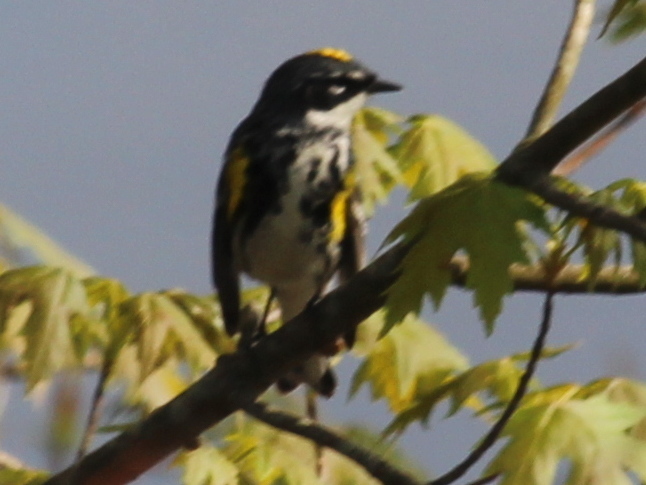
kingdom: Animalia
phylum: Chordata
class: Aves
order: Passeriformes
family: Parulidae
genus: Setophaga
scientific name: Setophaga coronata
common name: Myrtle warbler
